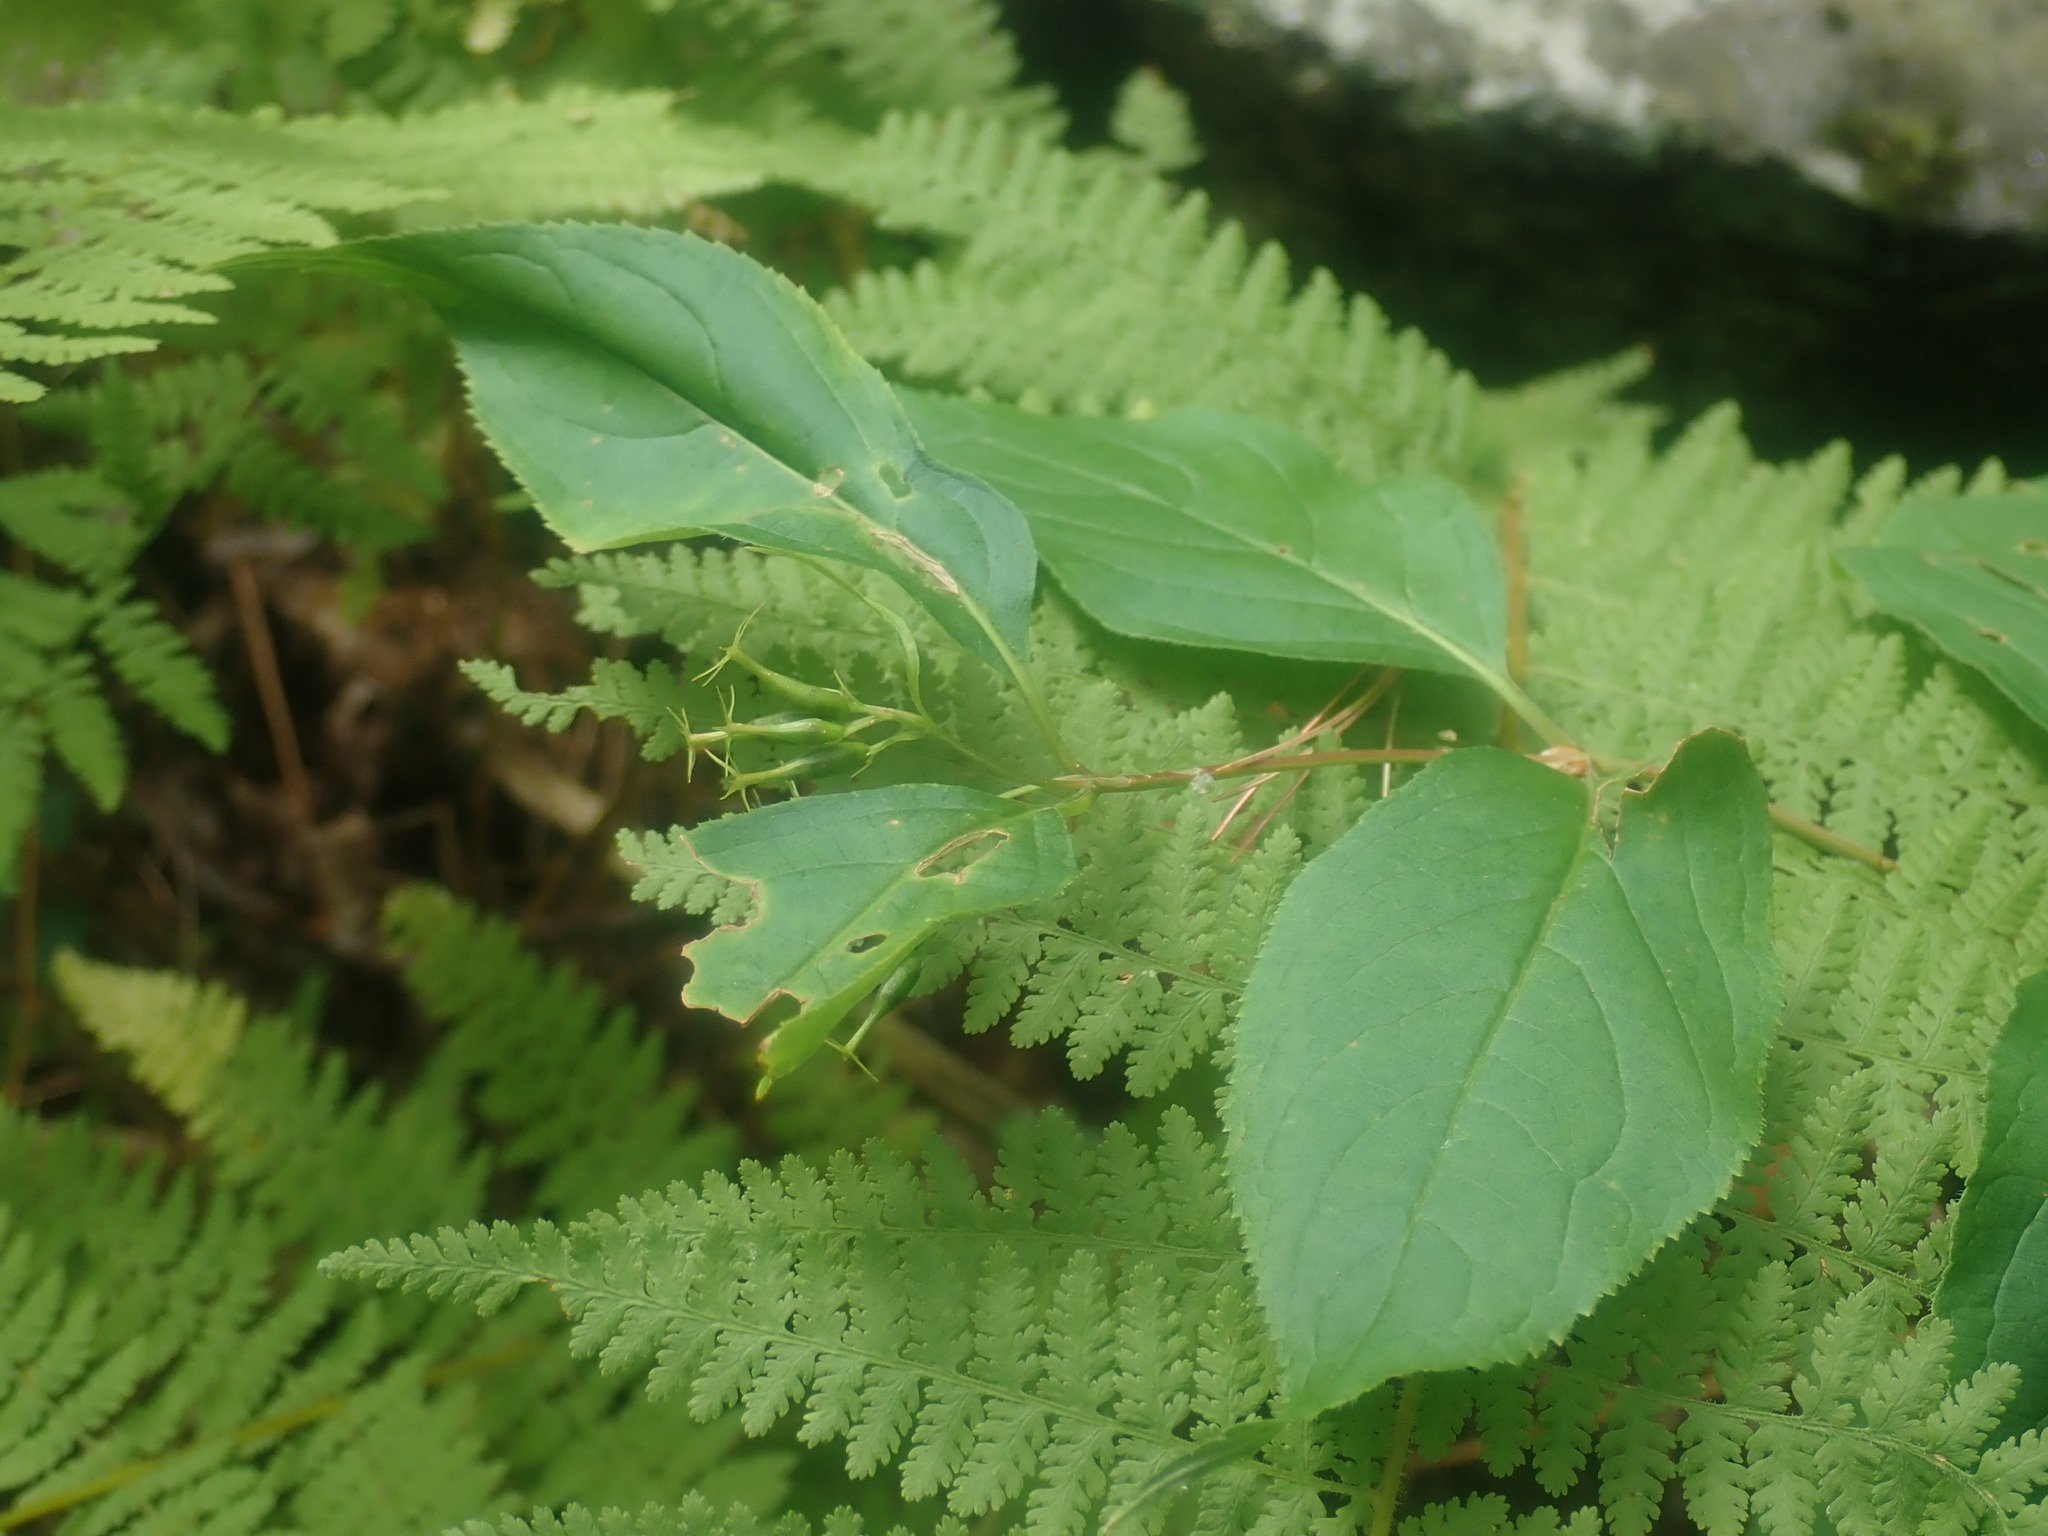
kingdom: Plantae
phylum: Tracheophyta
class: Magnoliopsida
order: Dipsacales
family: Caprifoliaceae
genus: Diervilla
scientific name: Diervilla lonicera
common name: Bush-honeysuckle
